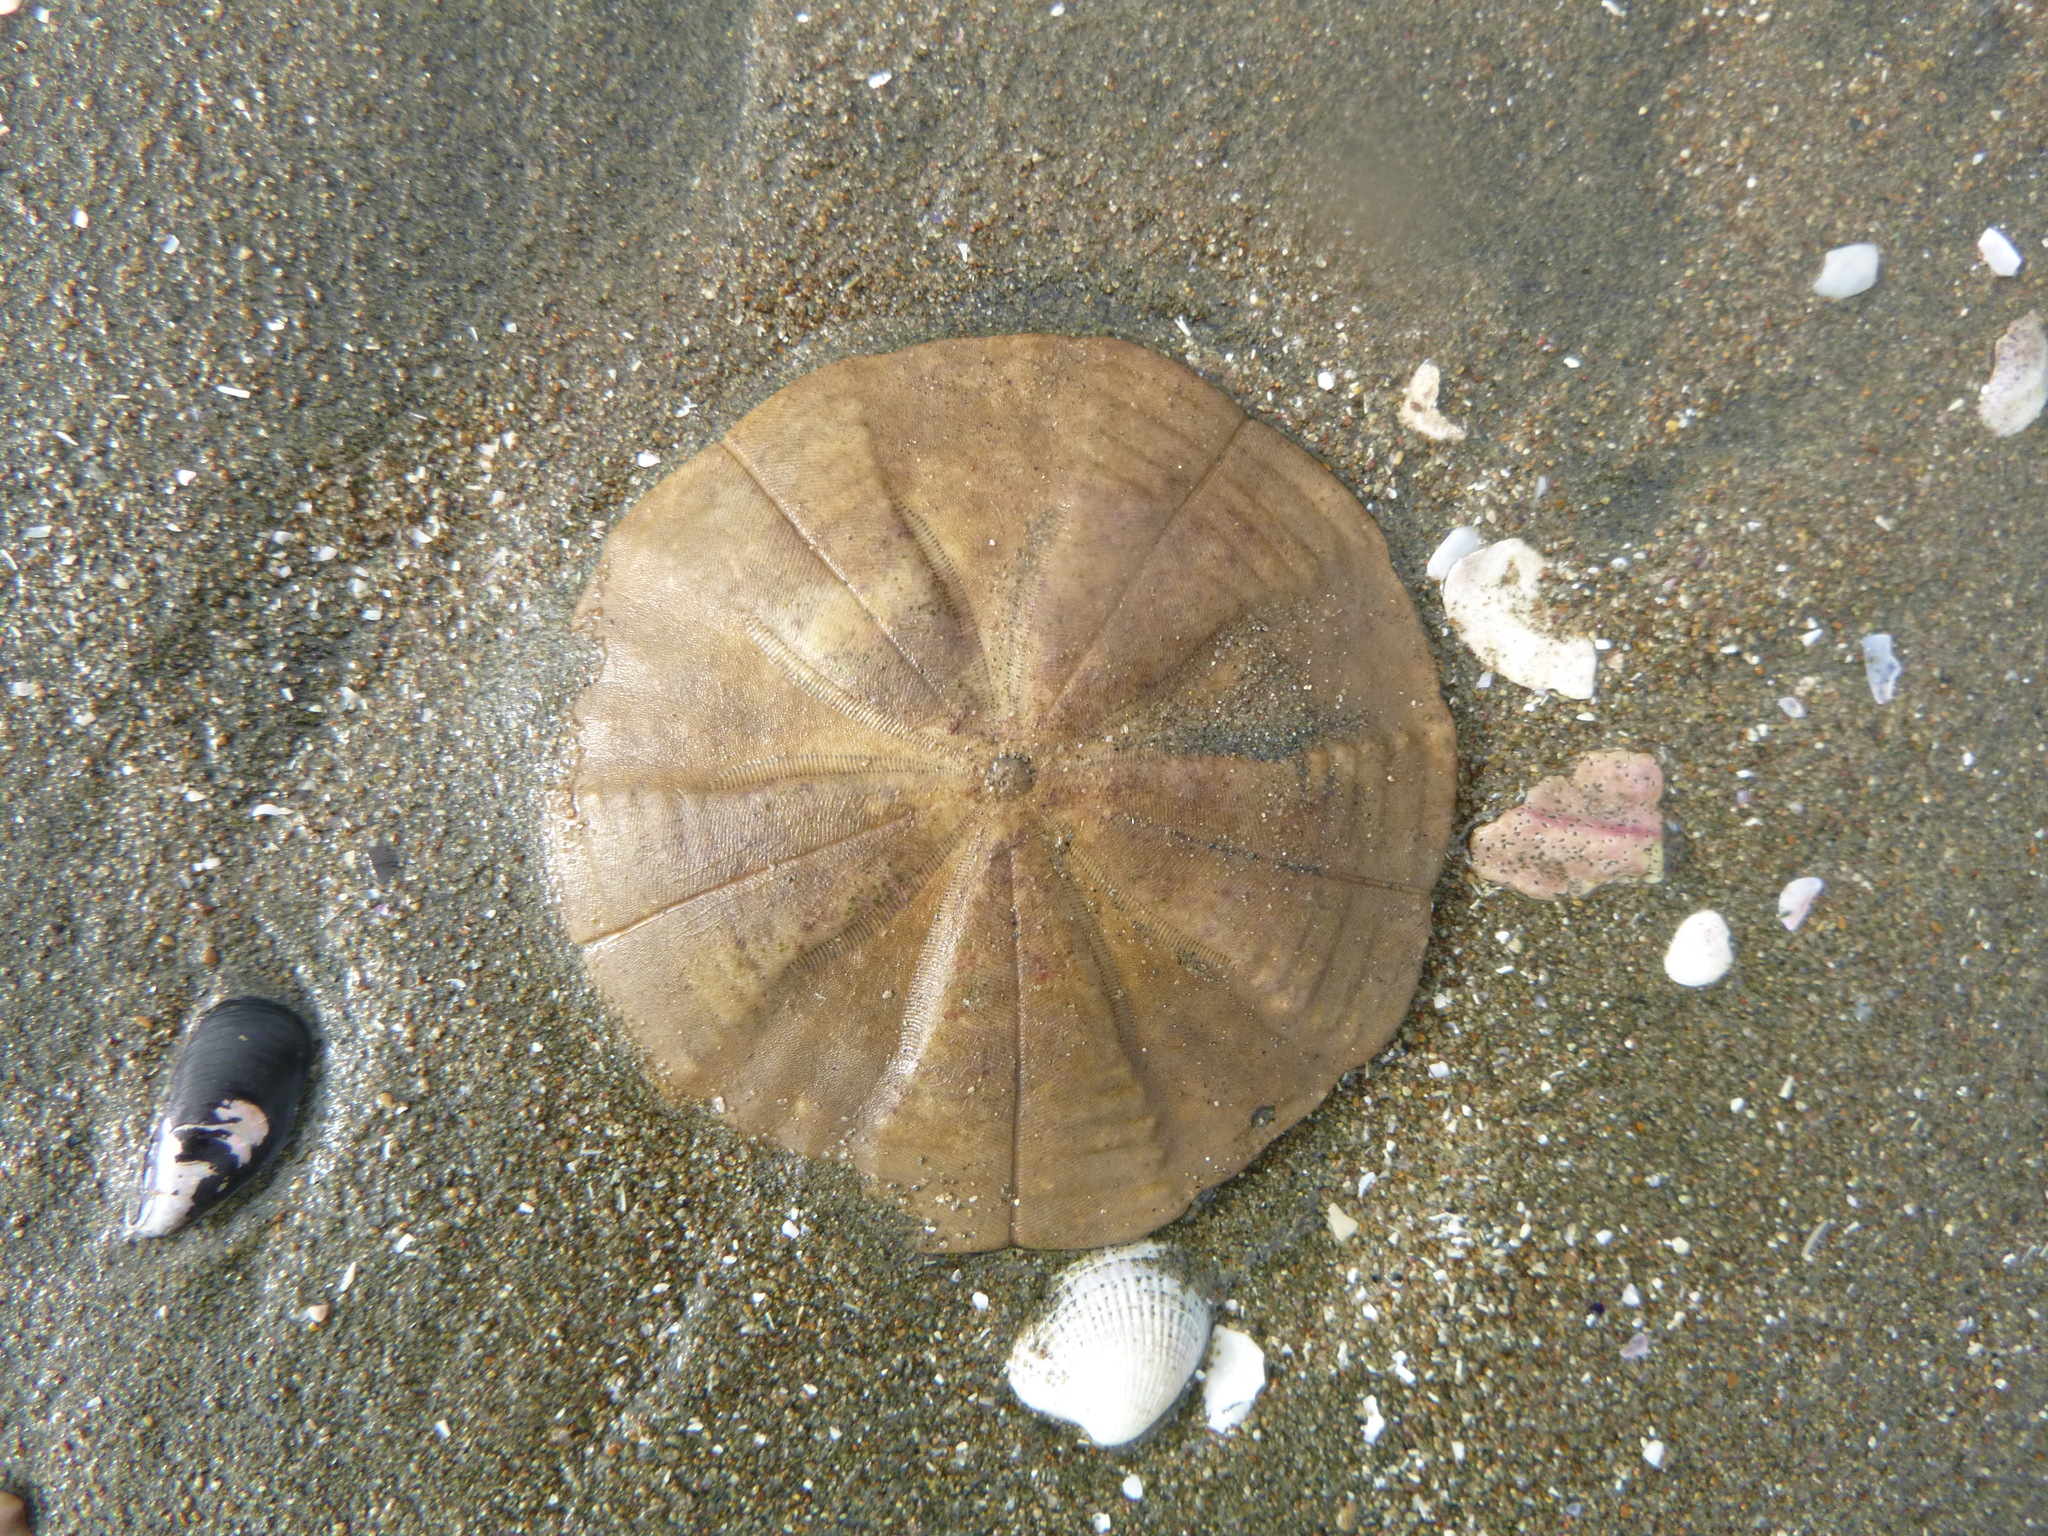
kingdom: Animalia
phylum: Echinodermata
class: Echinoidea
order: Clypeasteroida
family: Clypeasteridae
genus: Fellaster
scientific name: Fellaster zelandiae
